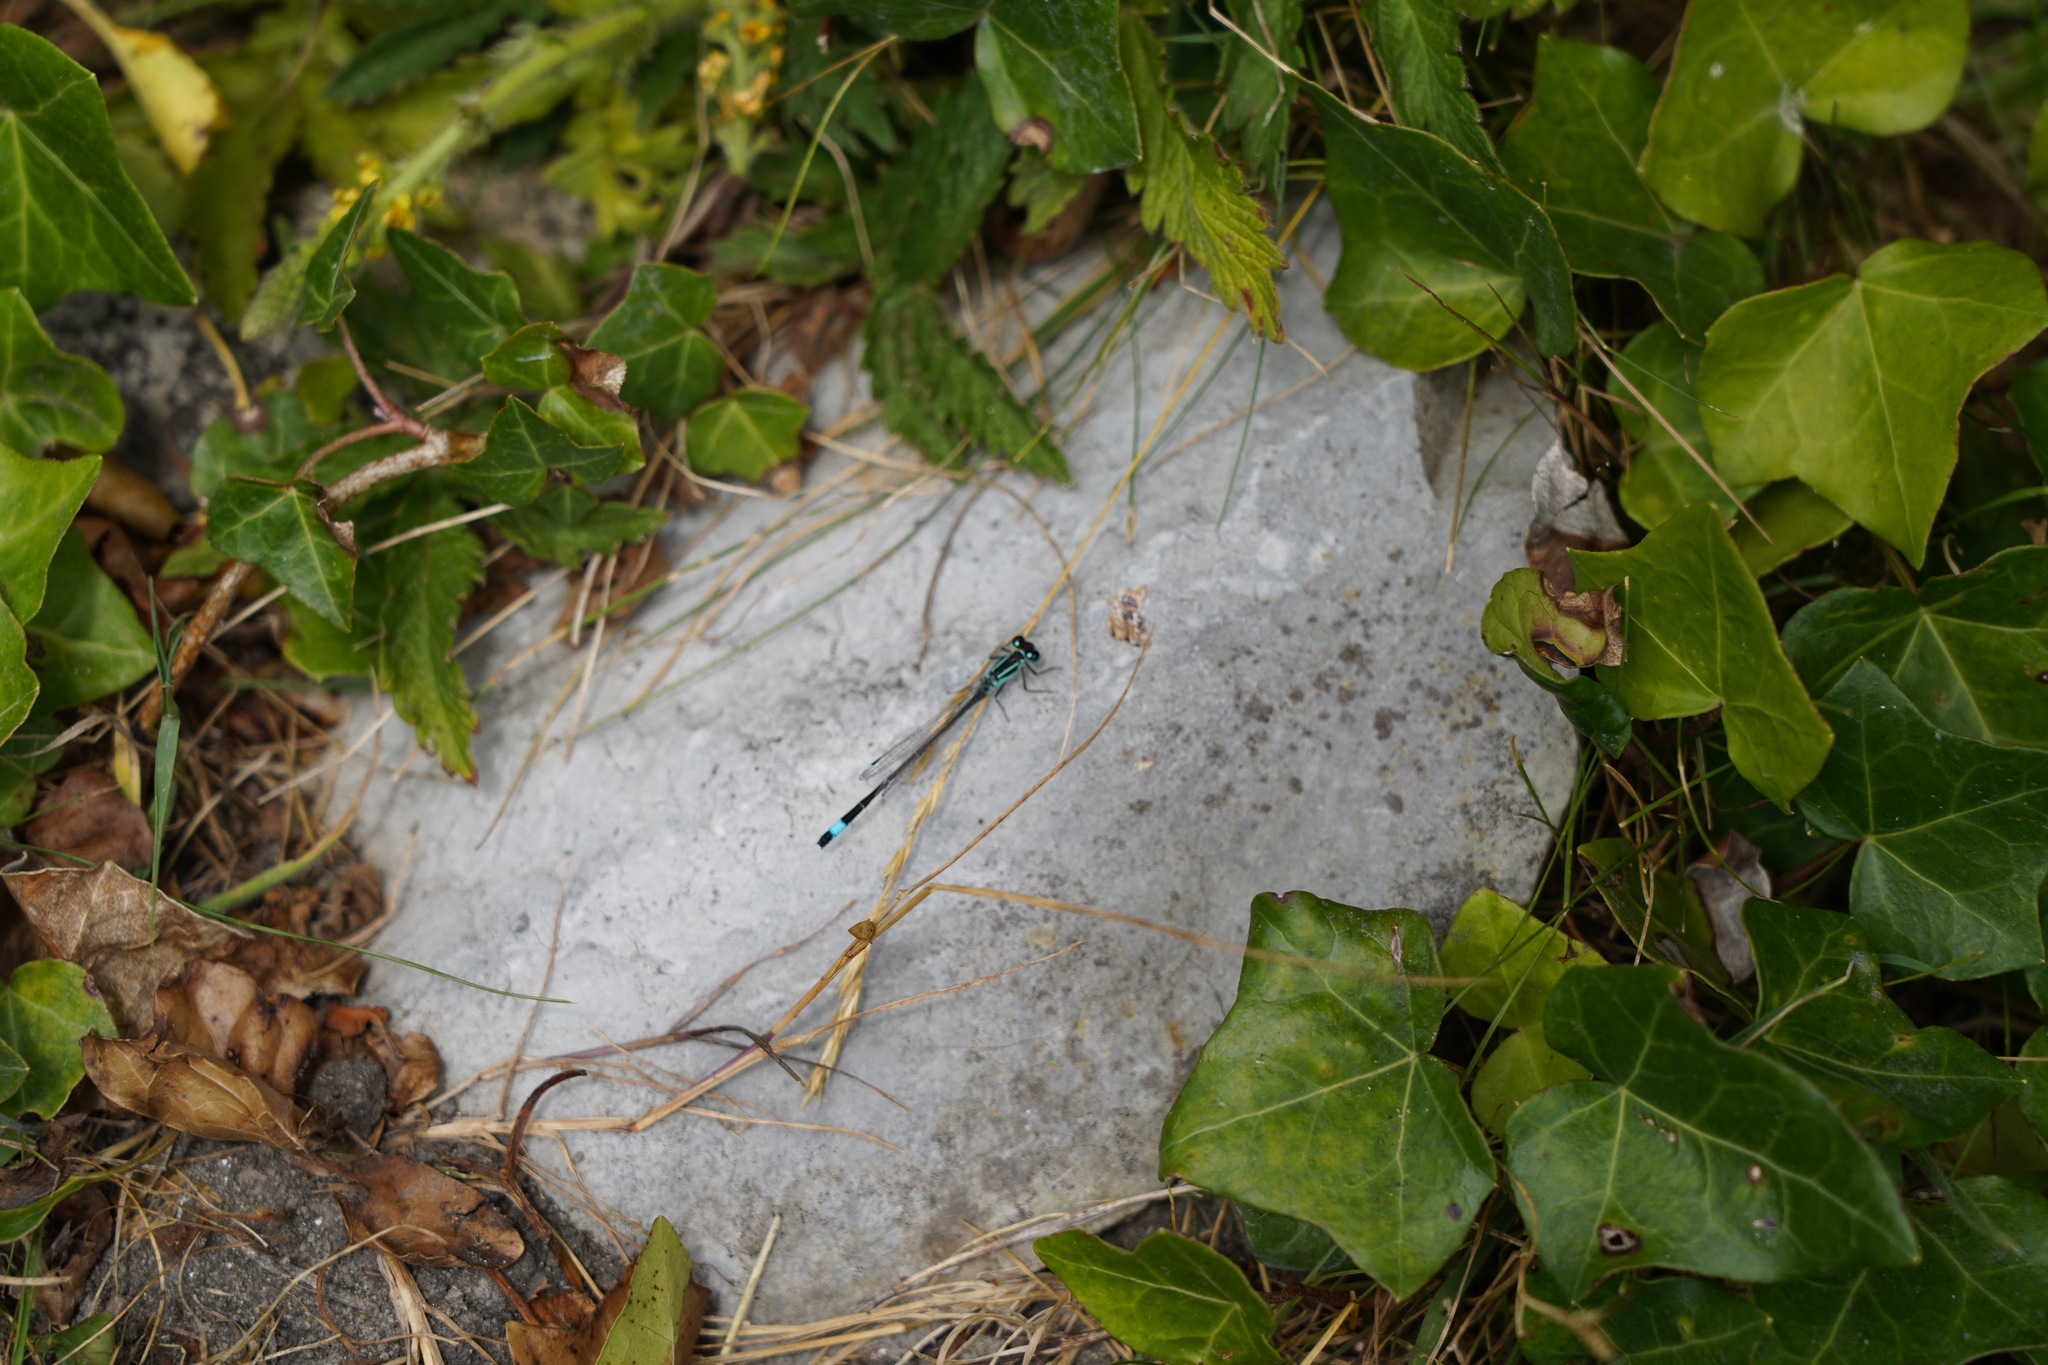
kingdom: Animalia
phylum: Arthropoda
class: Insecta
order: Odonata
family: Coenagrionidae
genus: Ischnura
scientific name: Ischnura elegans
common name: Blue-tailed damselfly
